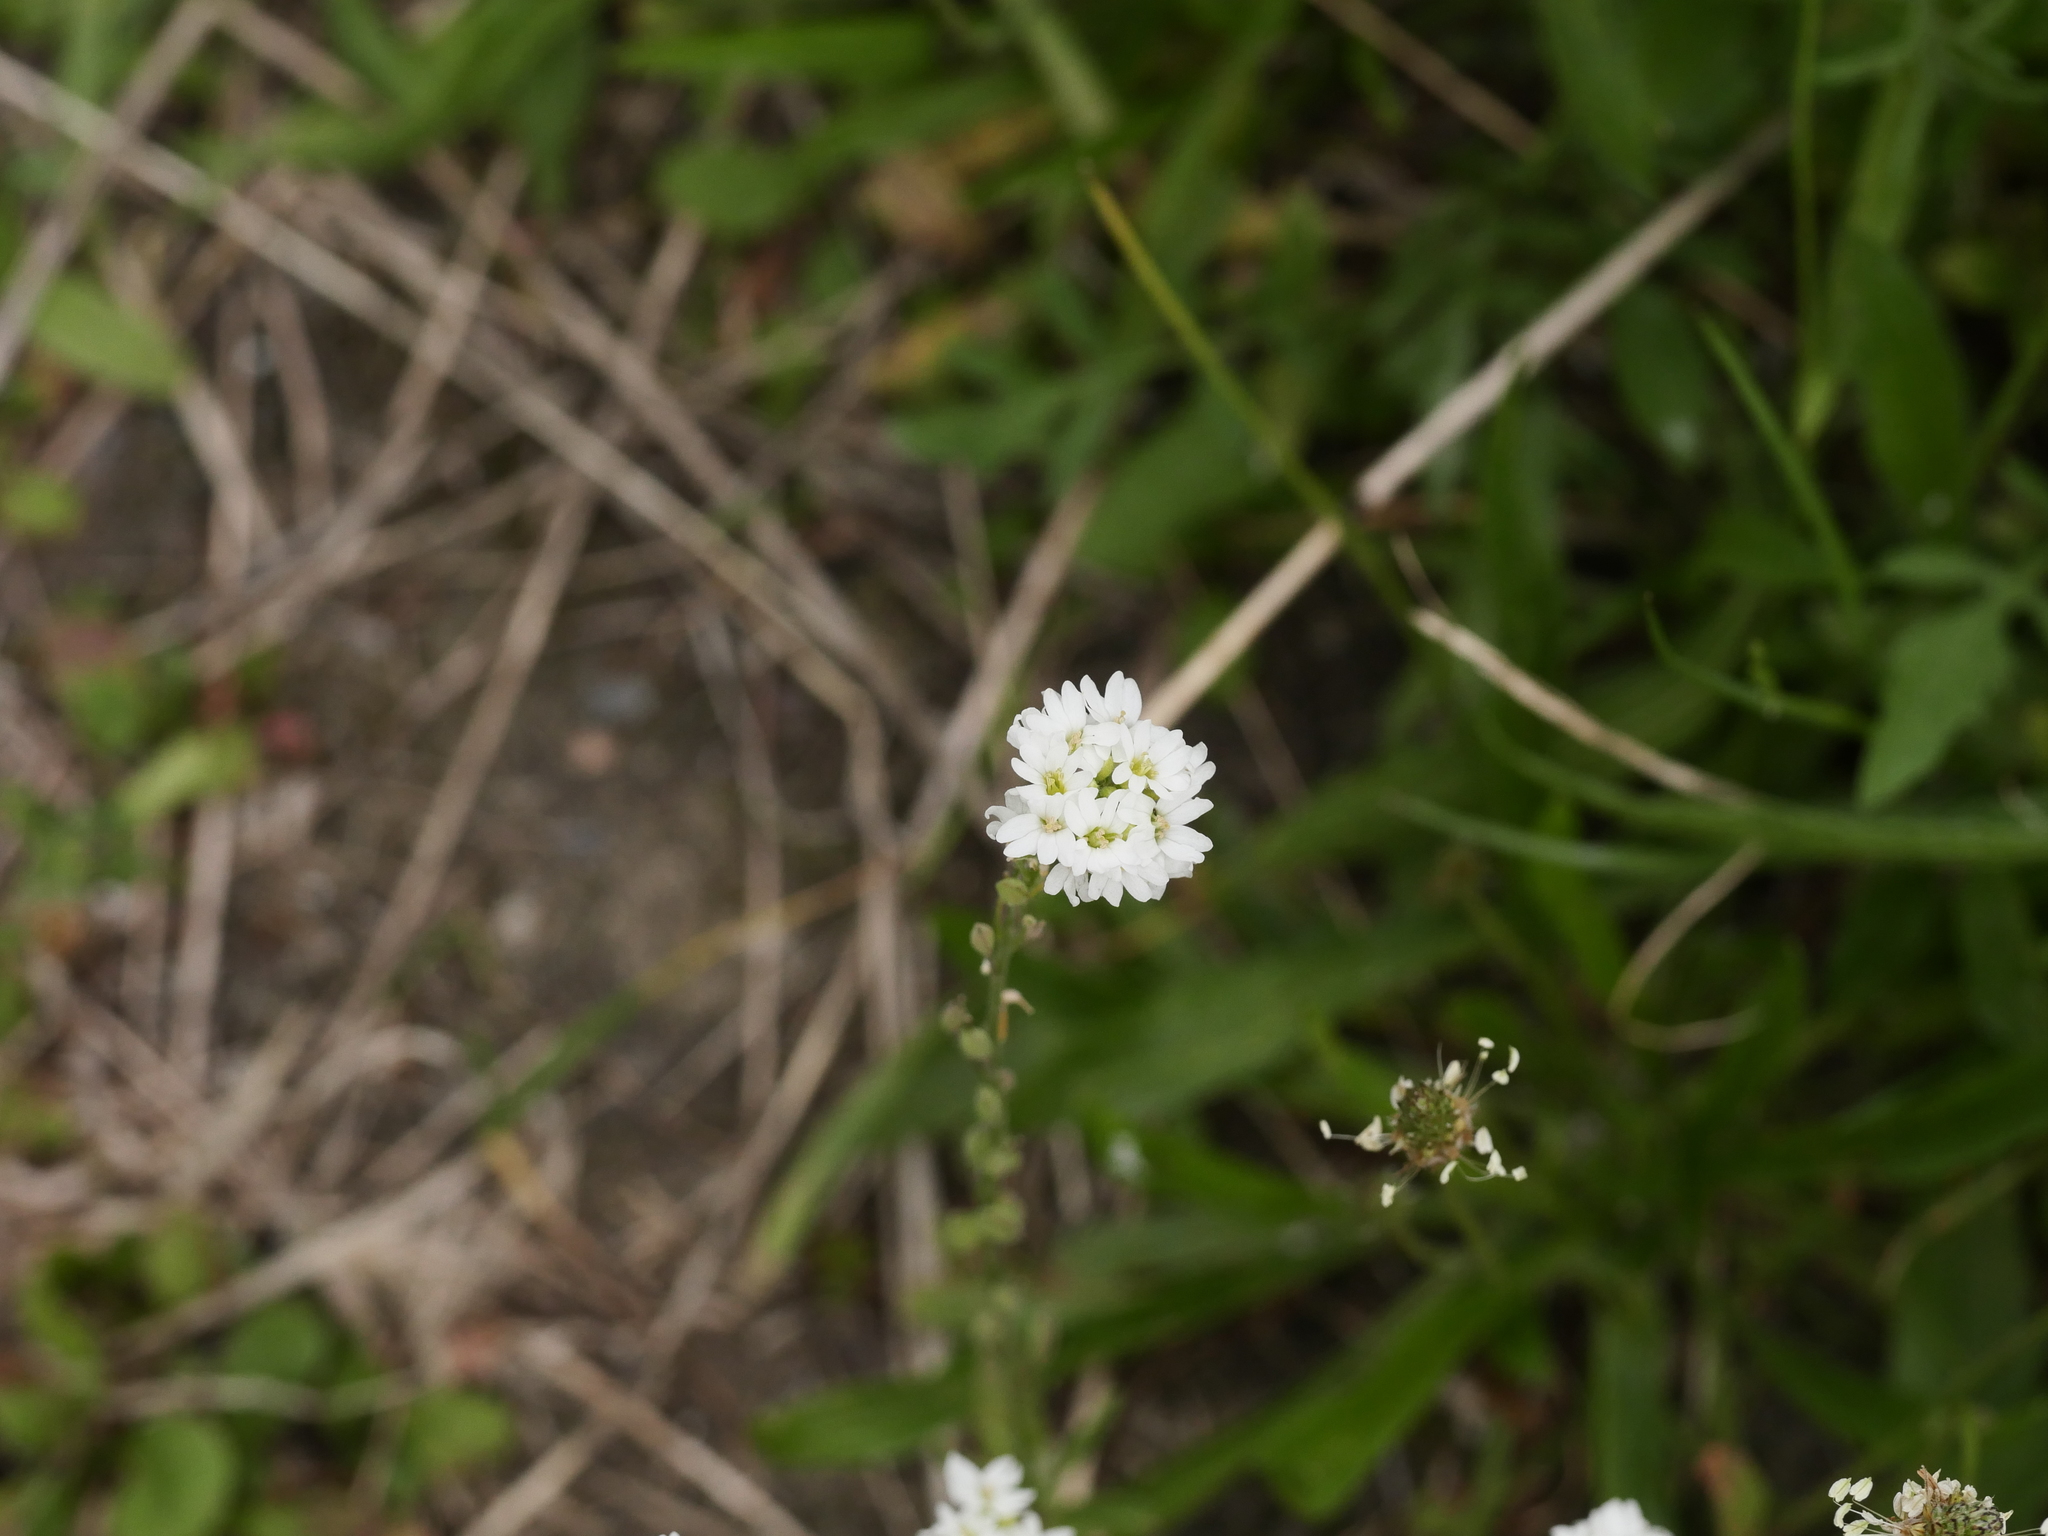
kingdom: Plantae
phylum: Tracheophyta
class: Magnoliopsida
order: Brassicales
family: Brassicaceae
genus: Berteroa
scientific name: Berteroa incana
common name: Hoary alison
